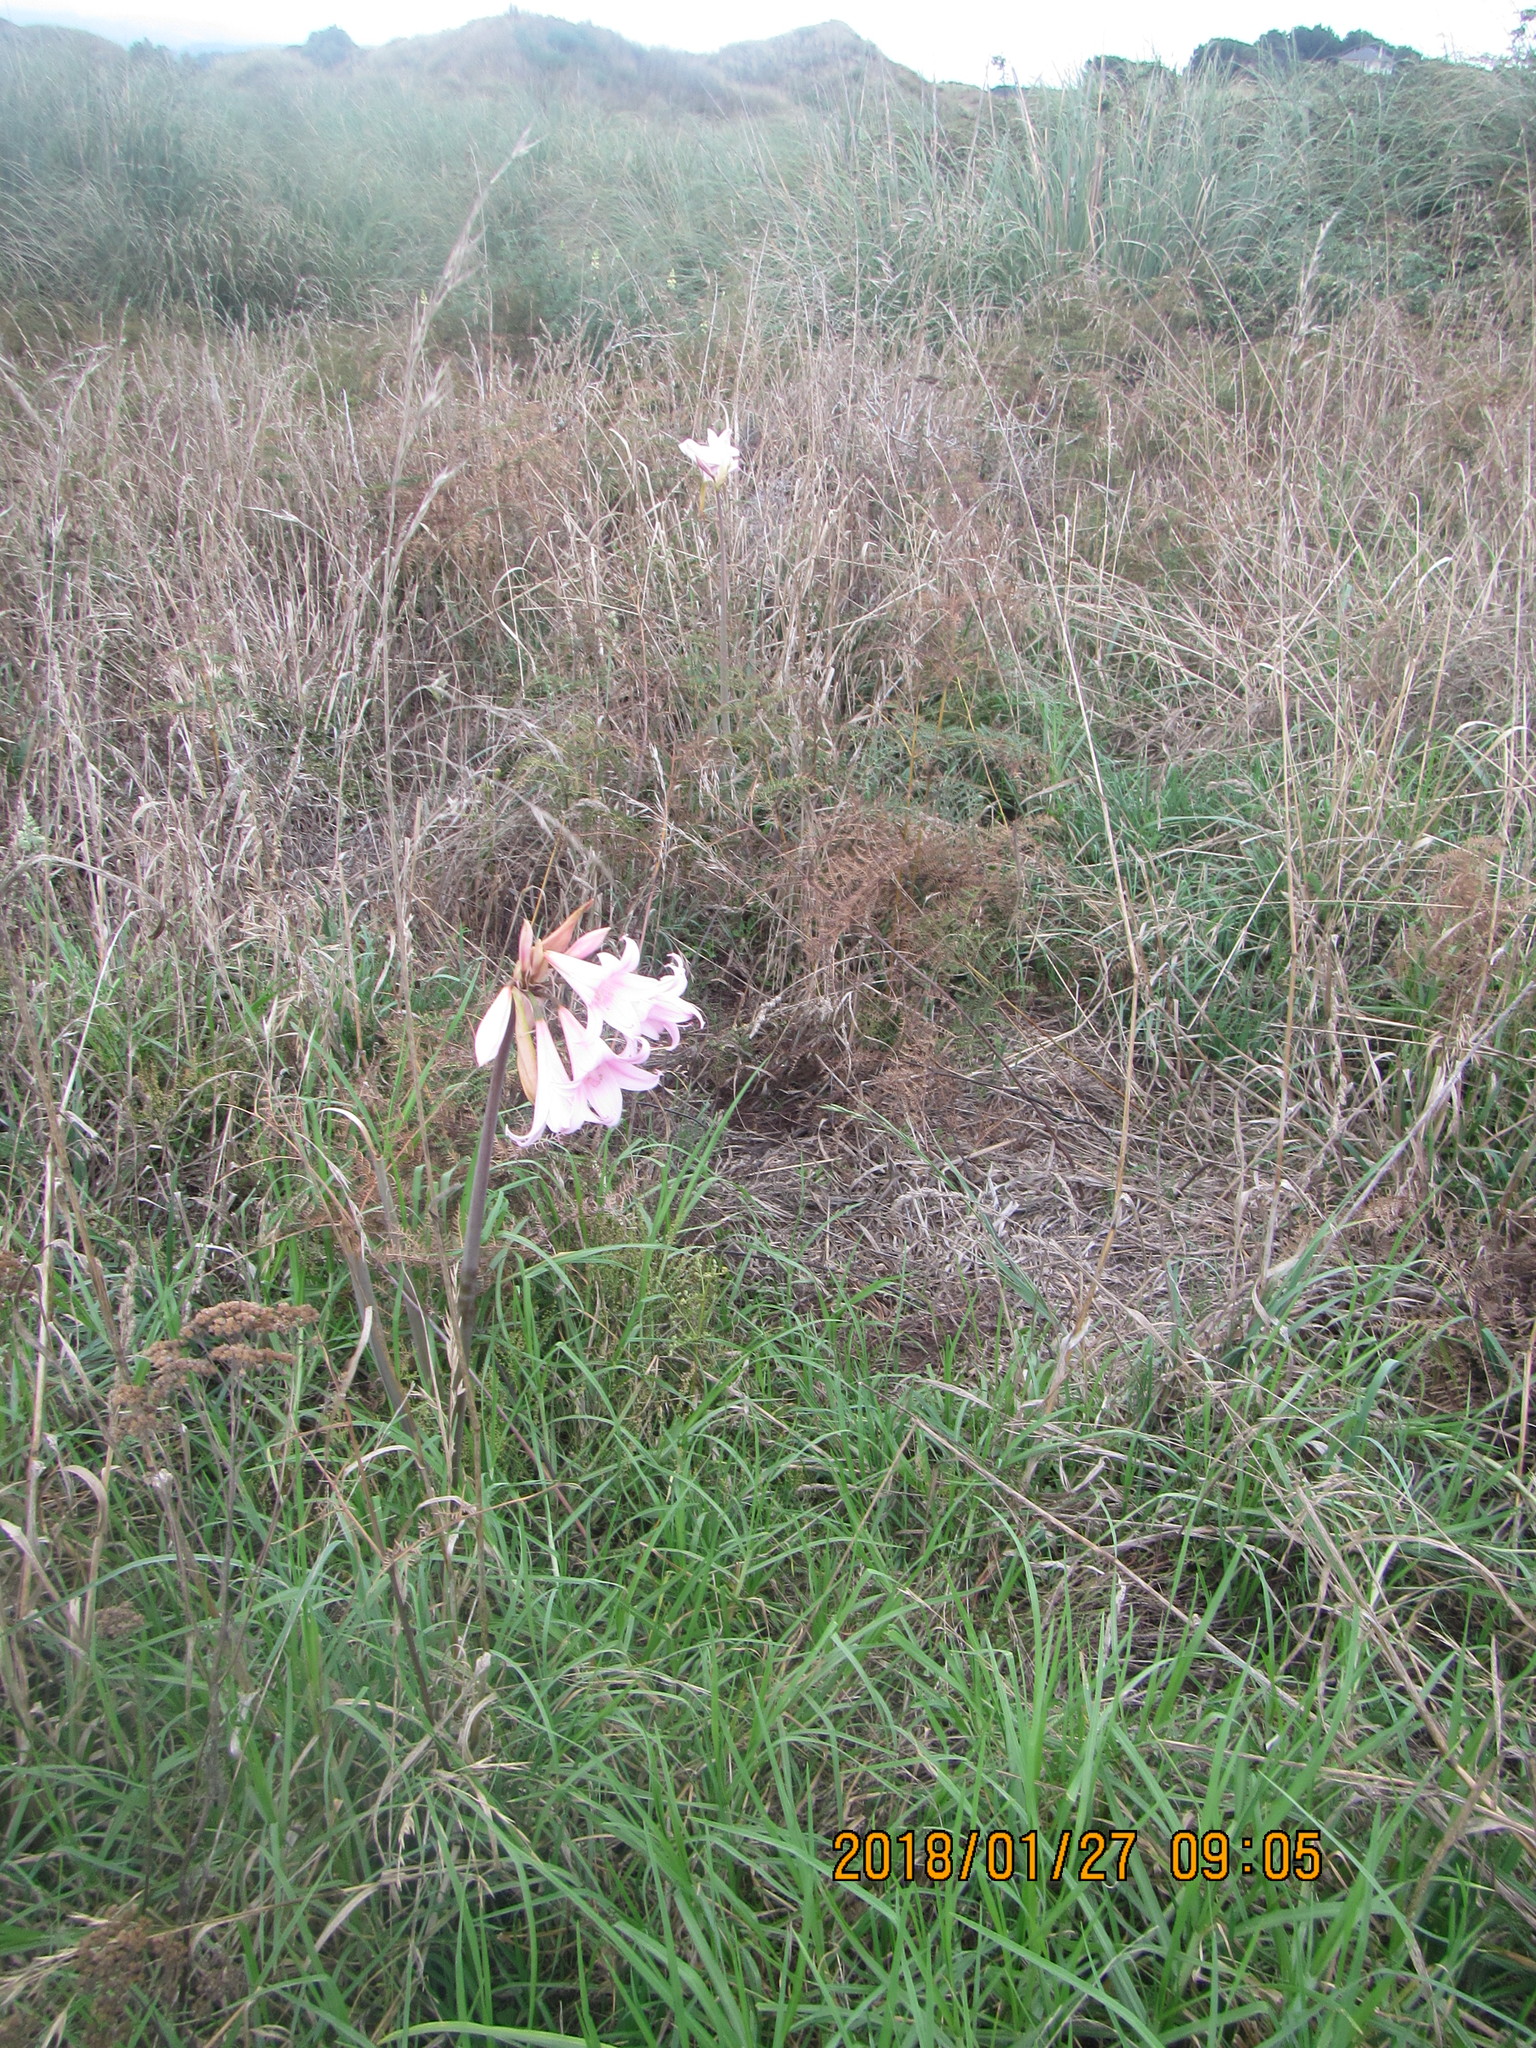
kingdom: Plantae
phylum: Tracheophyta
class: Liliopsida
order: Asparagales
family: Amaryllidaceae
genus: Amaryllis
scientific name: Amaryllis belladonna
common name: Jersey lily
